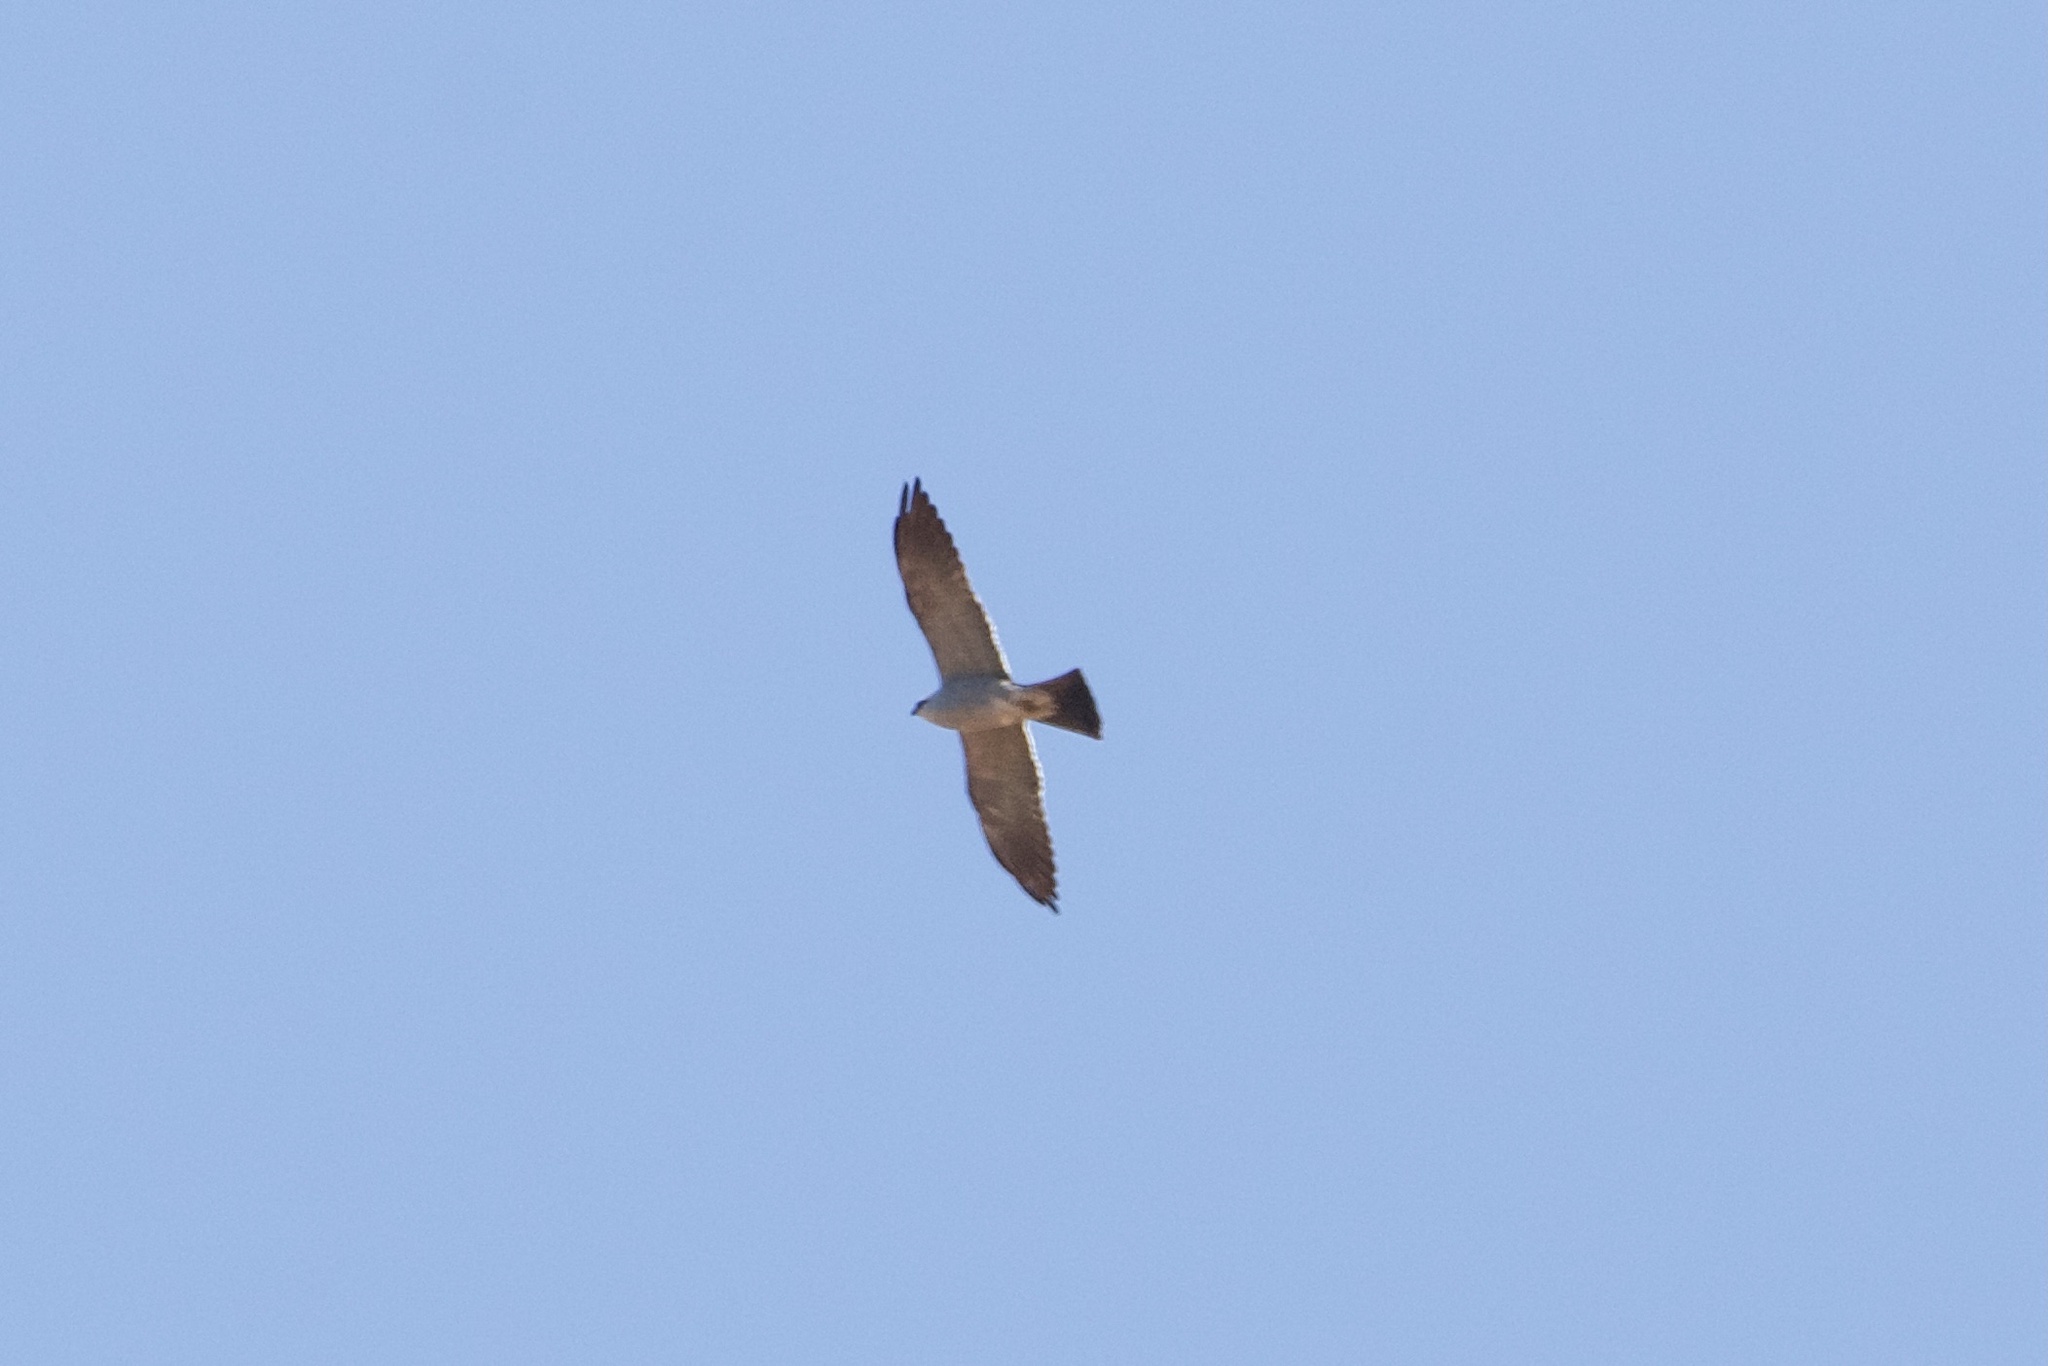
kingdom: Animalia
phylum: Chordata
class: Aves
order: Accipitriformes
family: Accipitridae
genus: Ictinia
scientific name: Ictinia mississippiensis
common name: Mississippi kite
